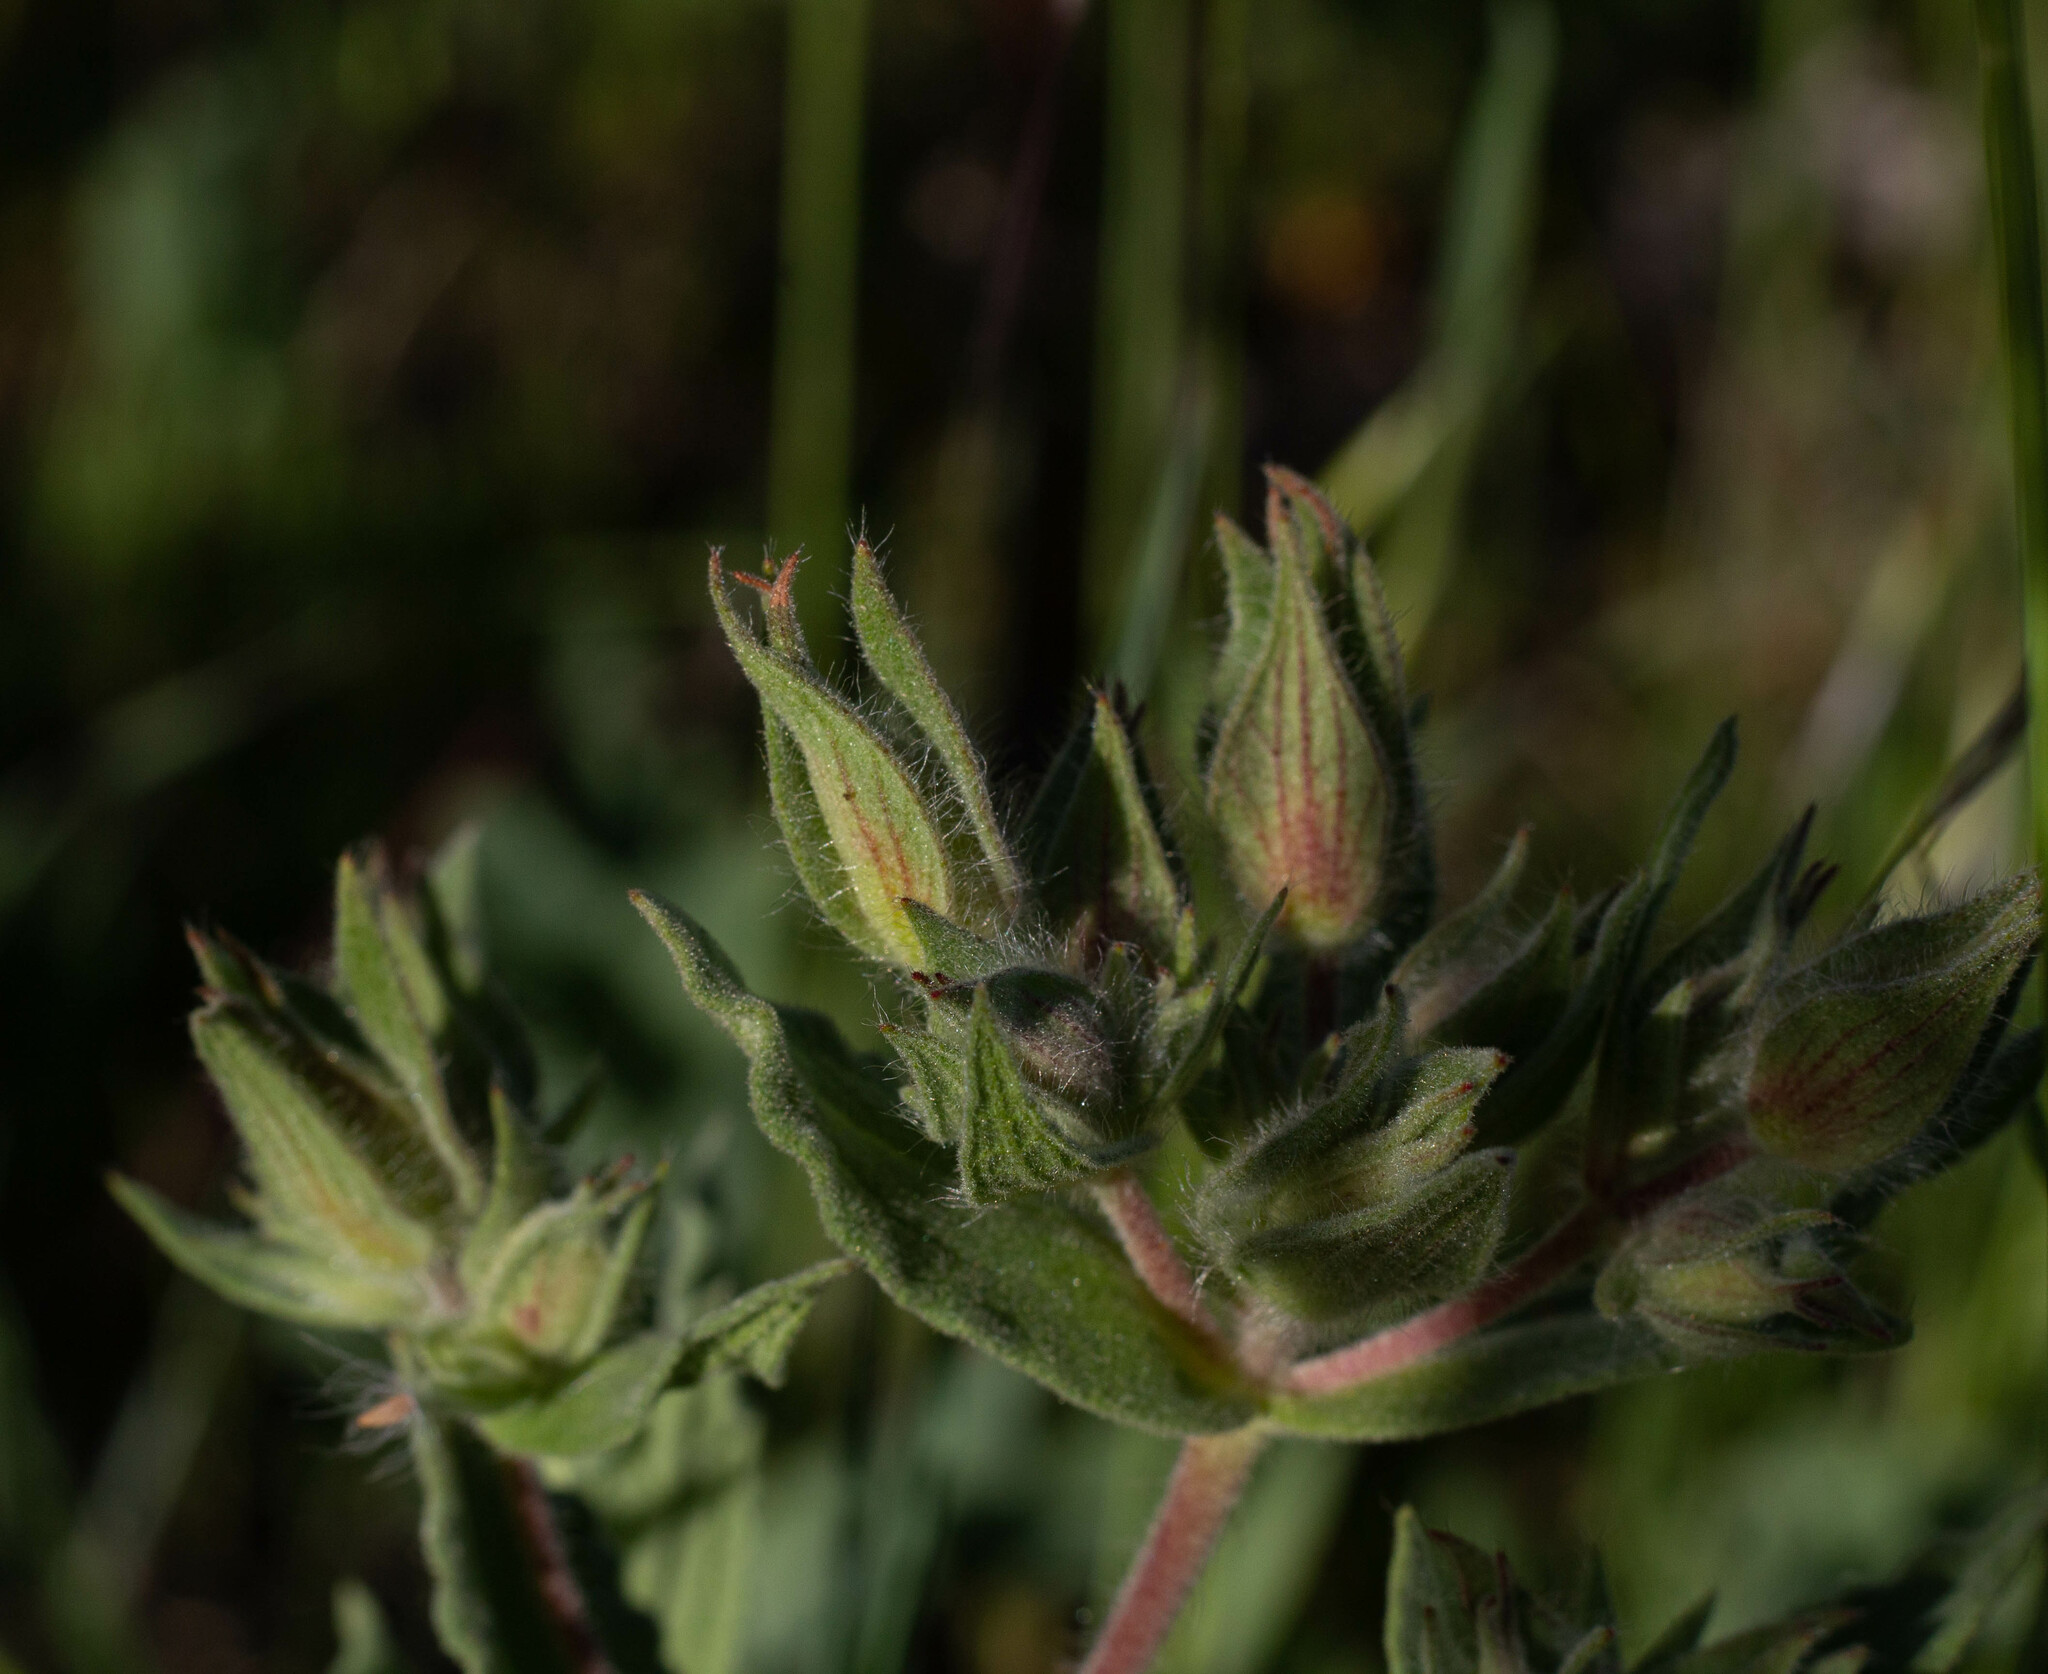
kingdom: Plantae
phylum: Tracheophyta
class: Magnoliopsida
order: Malvales
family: Cistaceae
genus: Cistus
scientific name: Cistus crispus
